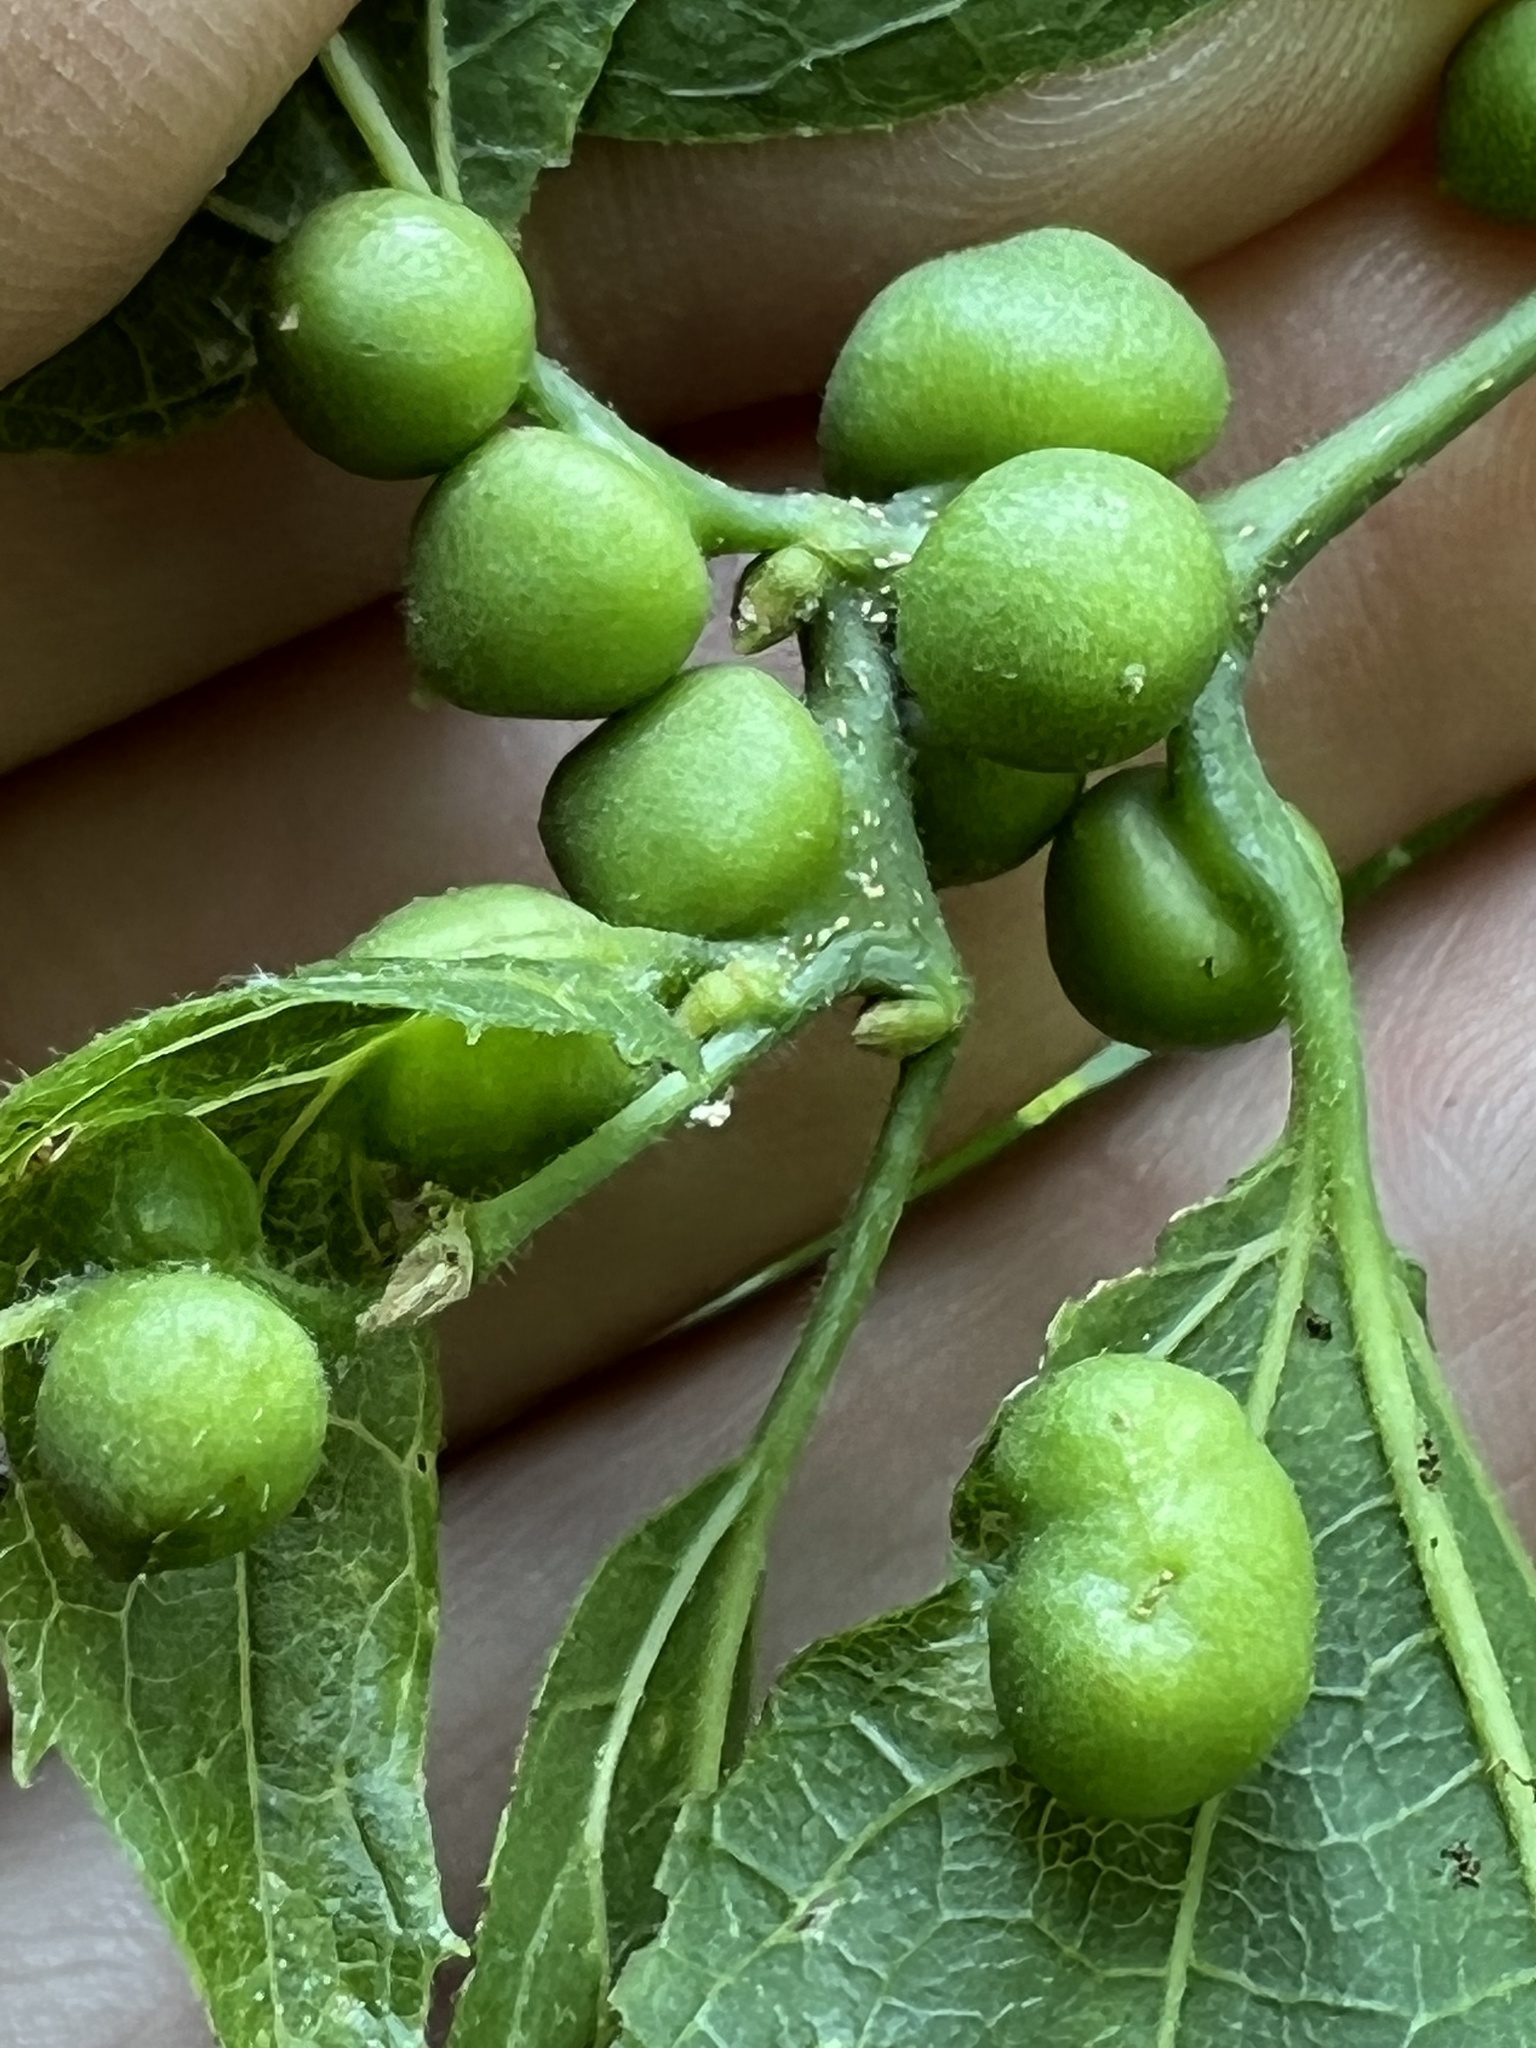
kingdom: Animalia
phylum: Arthropoda
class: Insecta
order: Diptera
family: Cecidomyiidae
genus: Celticecis
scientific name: Celticecis connata
